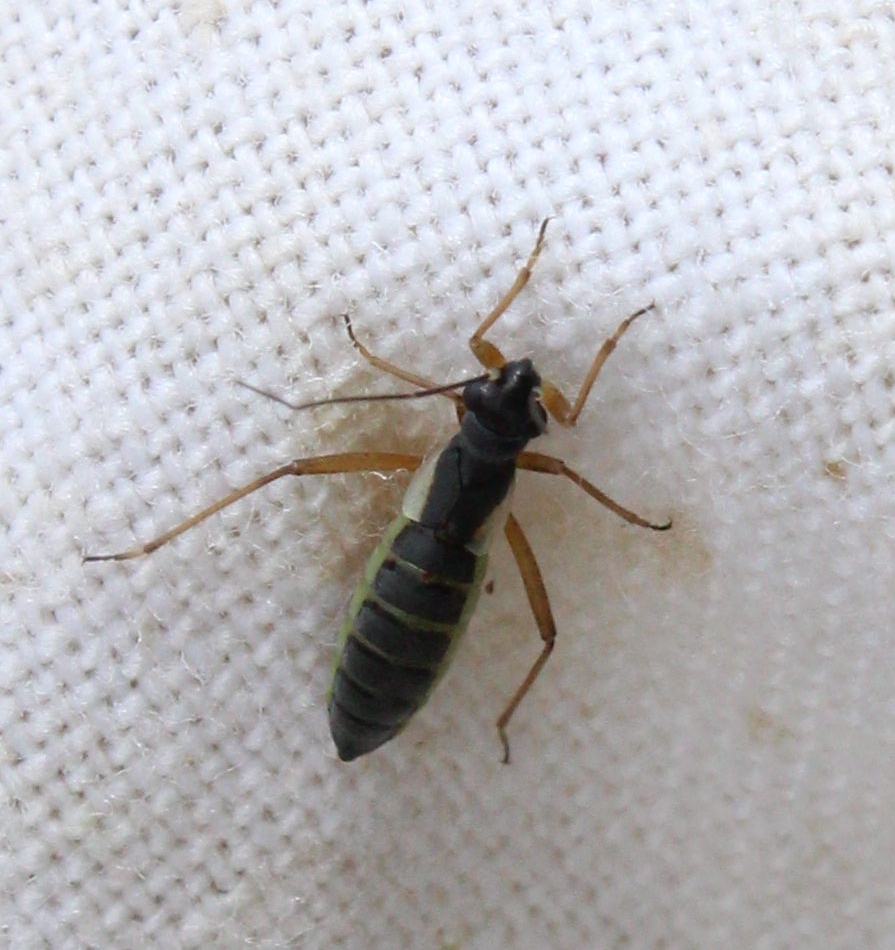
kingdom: Animalia
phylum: Arthropoda
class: Insecta
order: Hemiptera
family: Miridae
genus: Pithanus
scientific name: Pithanus maerkelii
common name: Plant bug
